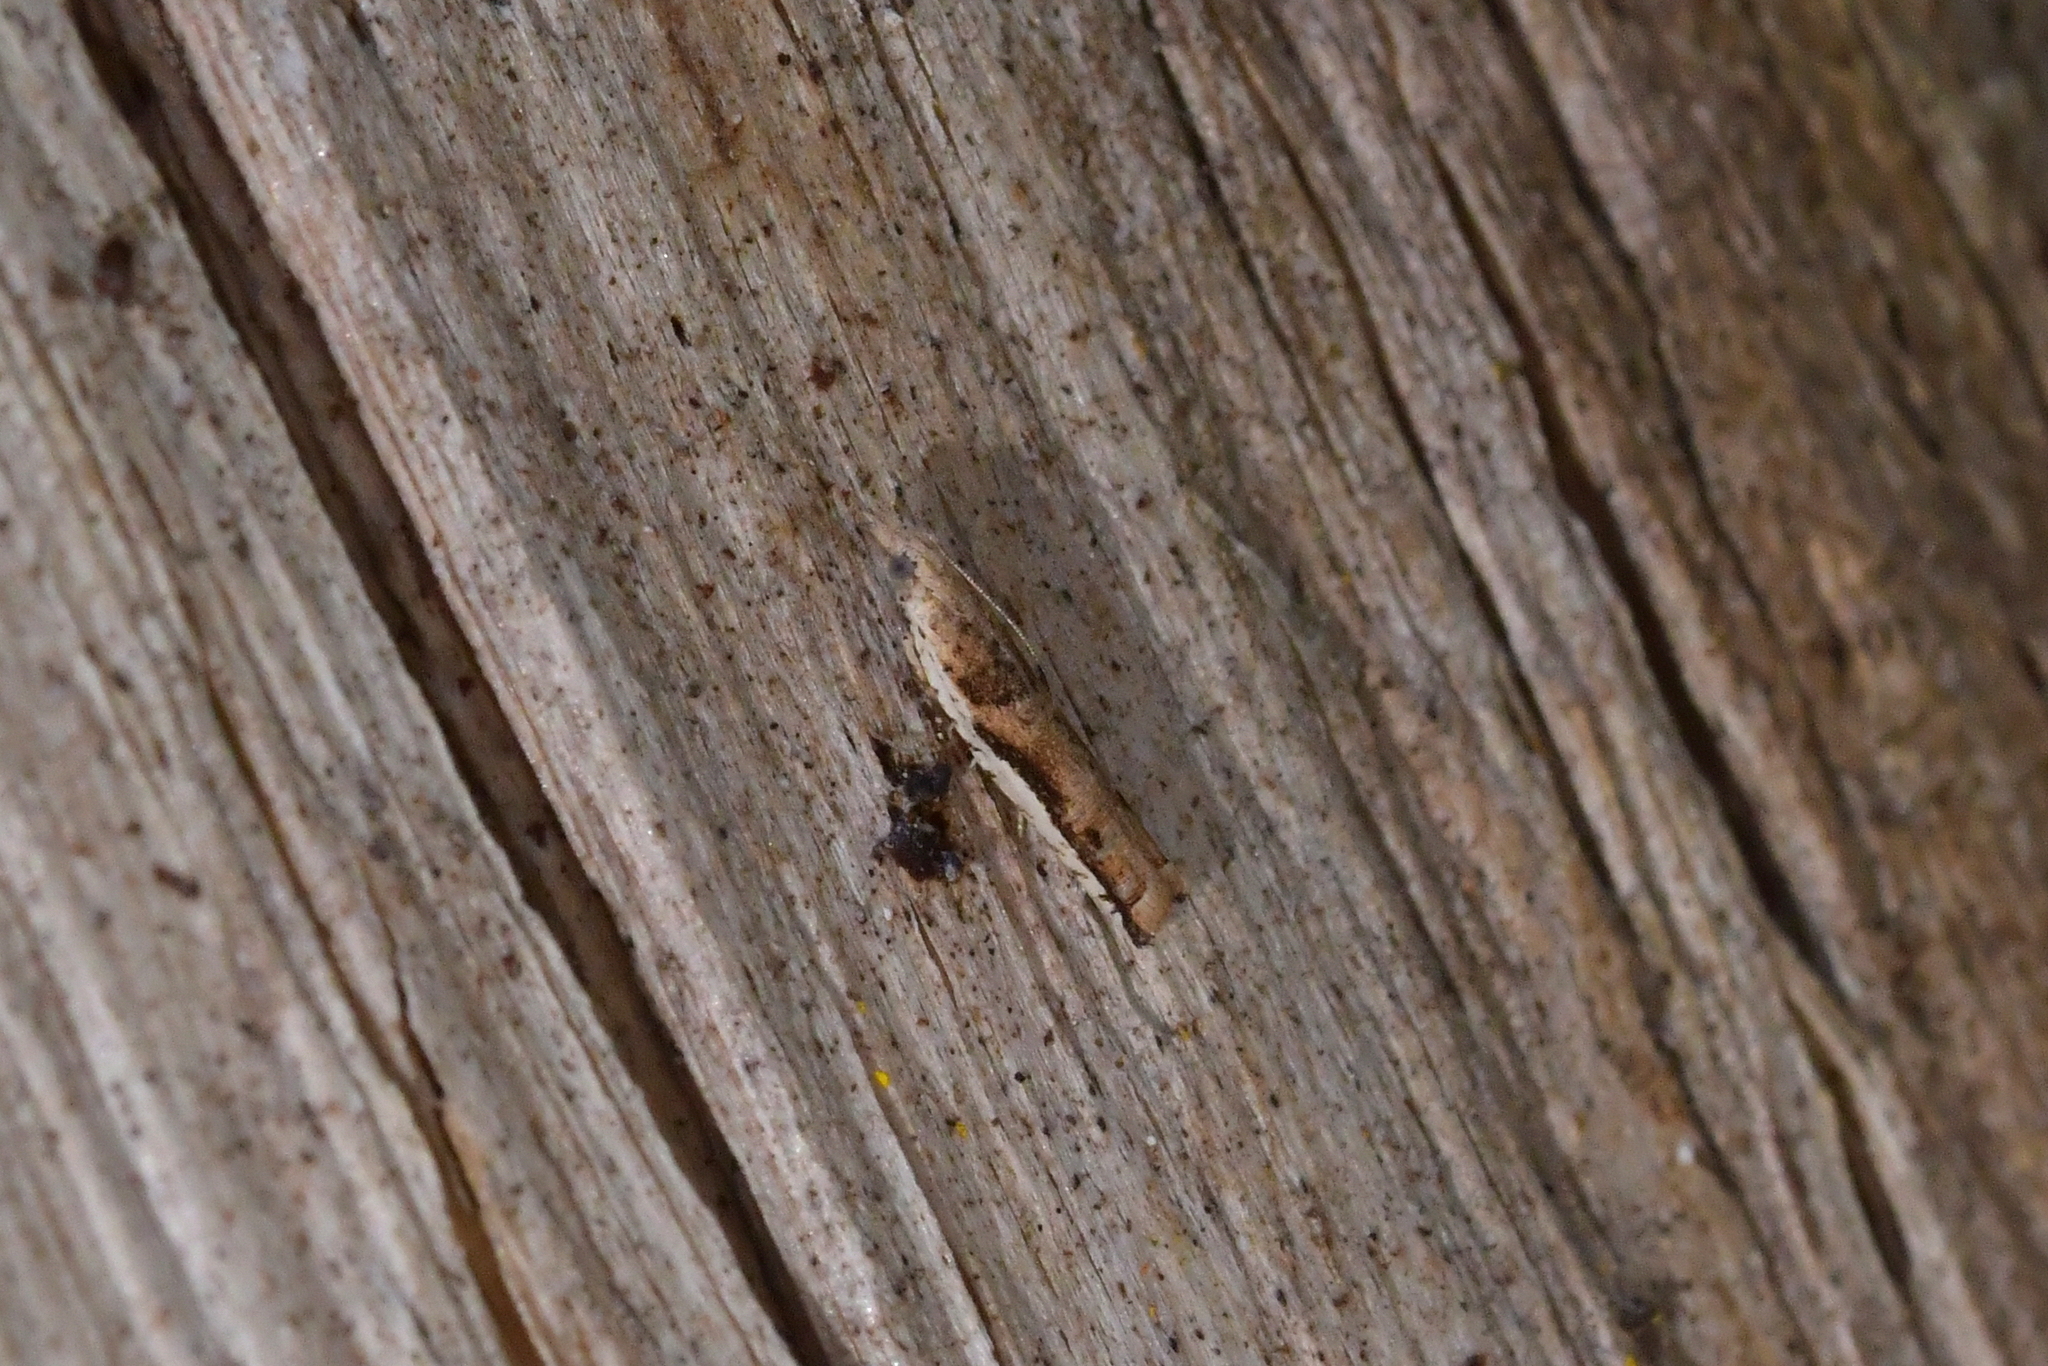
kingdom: Animalia
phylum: Arthropoda
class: Insecta
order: Lepidoptera
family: Tortricidae
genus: Holocola
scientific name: Holocola
